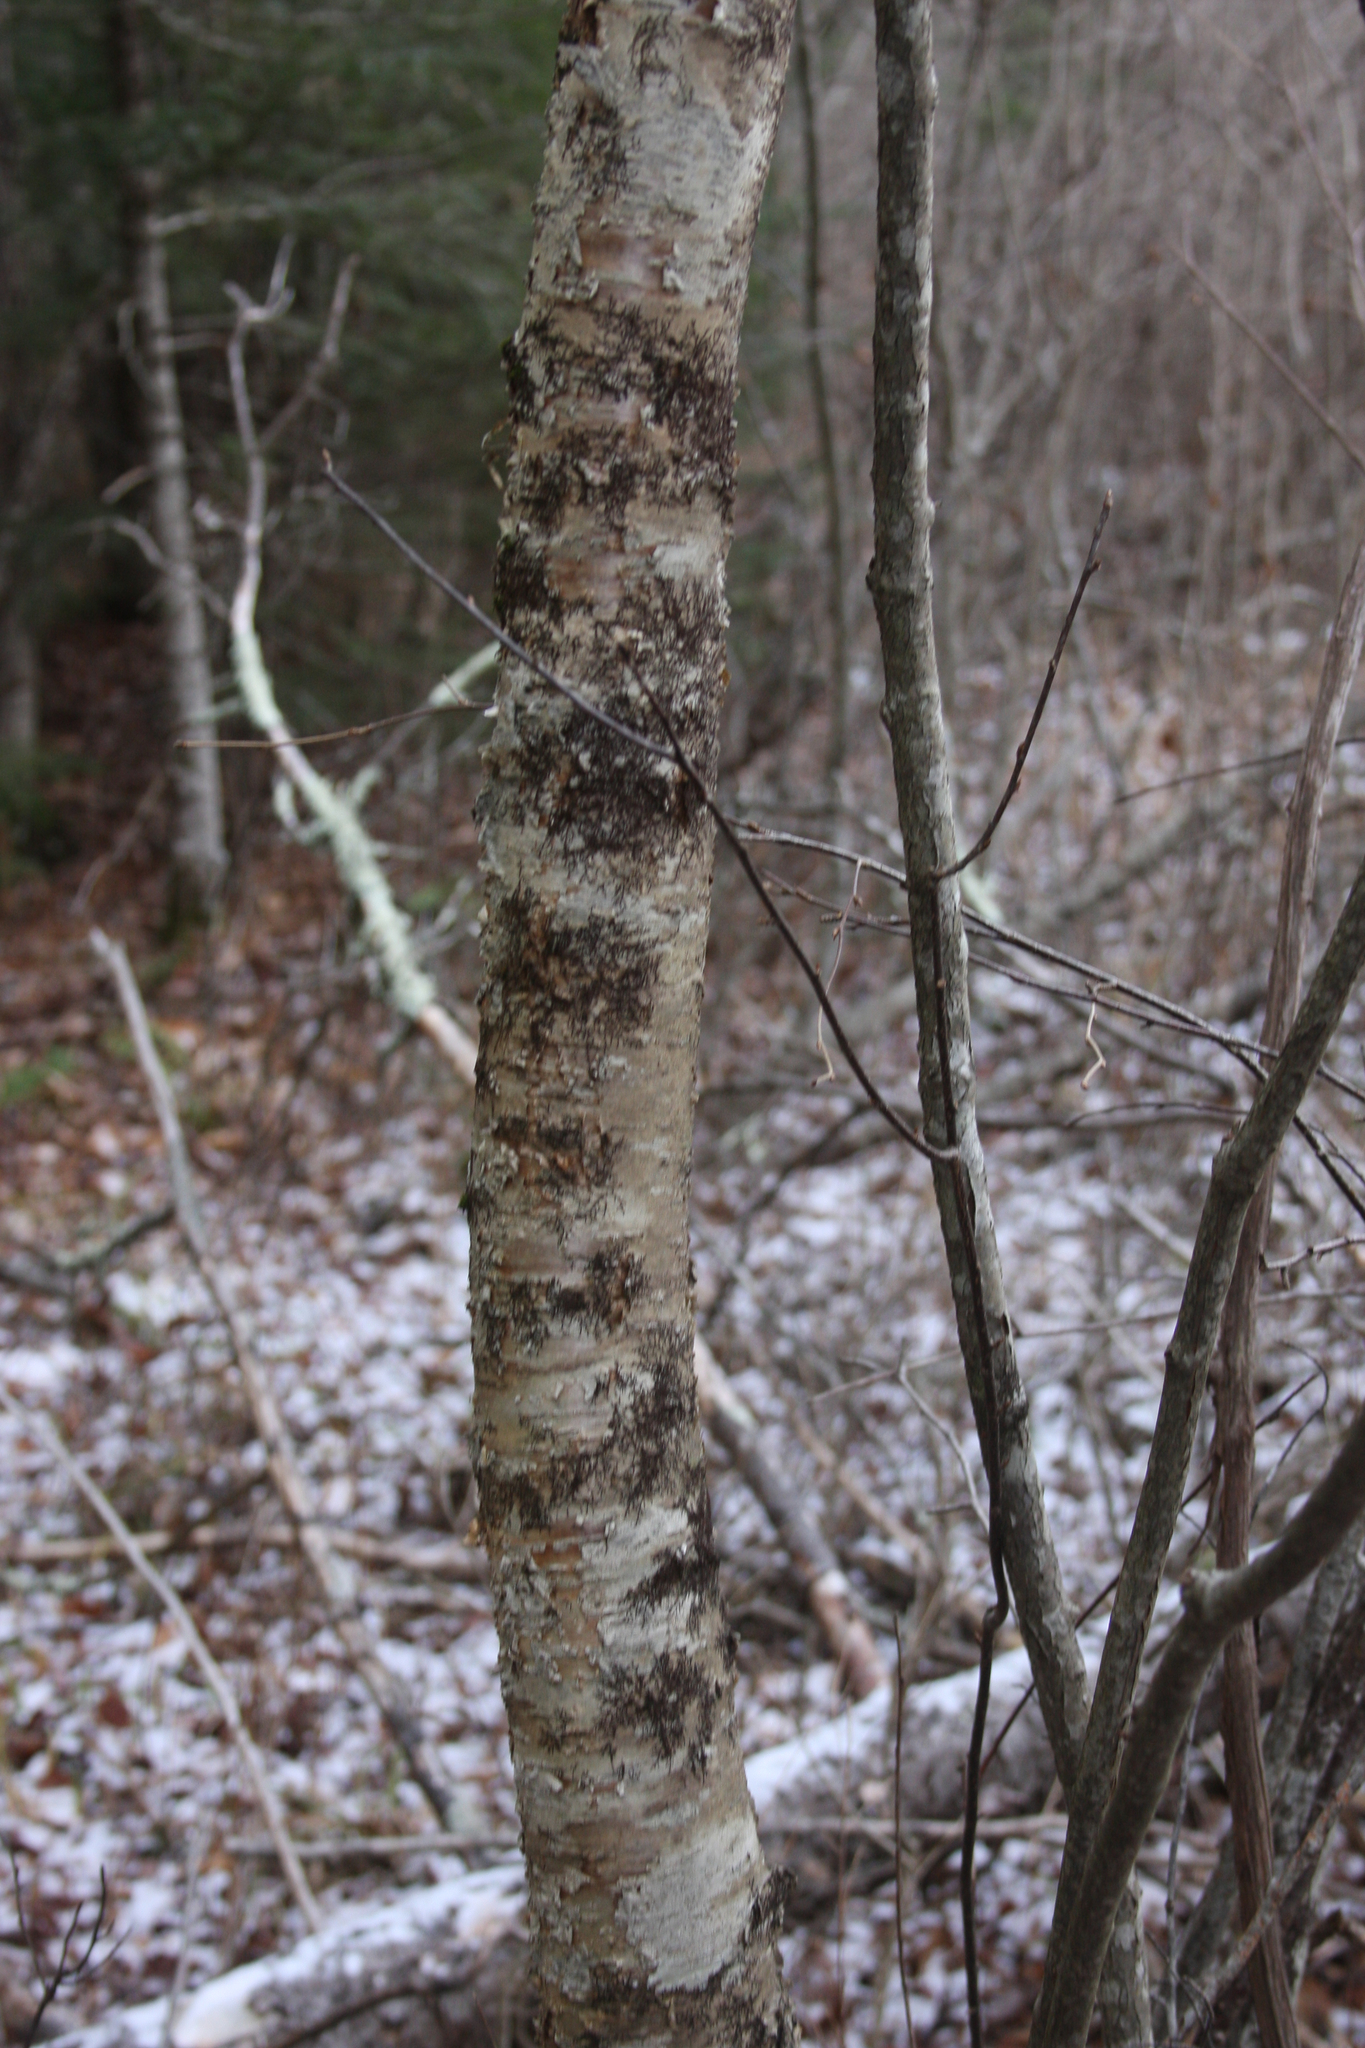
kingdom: Plantae
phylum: Tracheophyta
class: Magnoliopsida
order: Fagales
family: Betulaceae
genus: Betula
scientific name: Betula alleghaniensis
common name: Yellow birch
